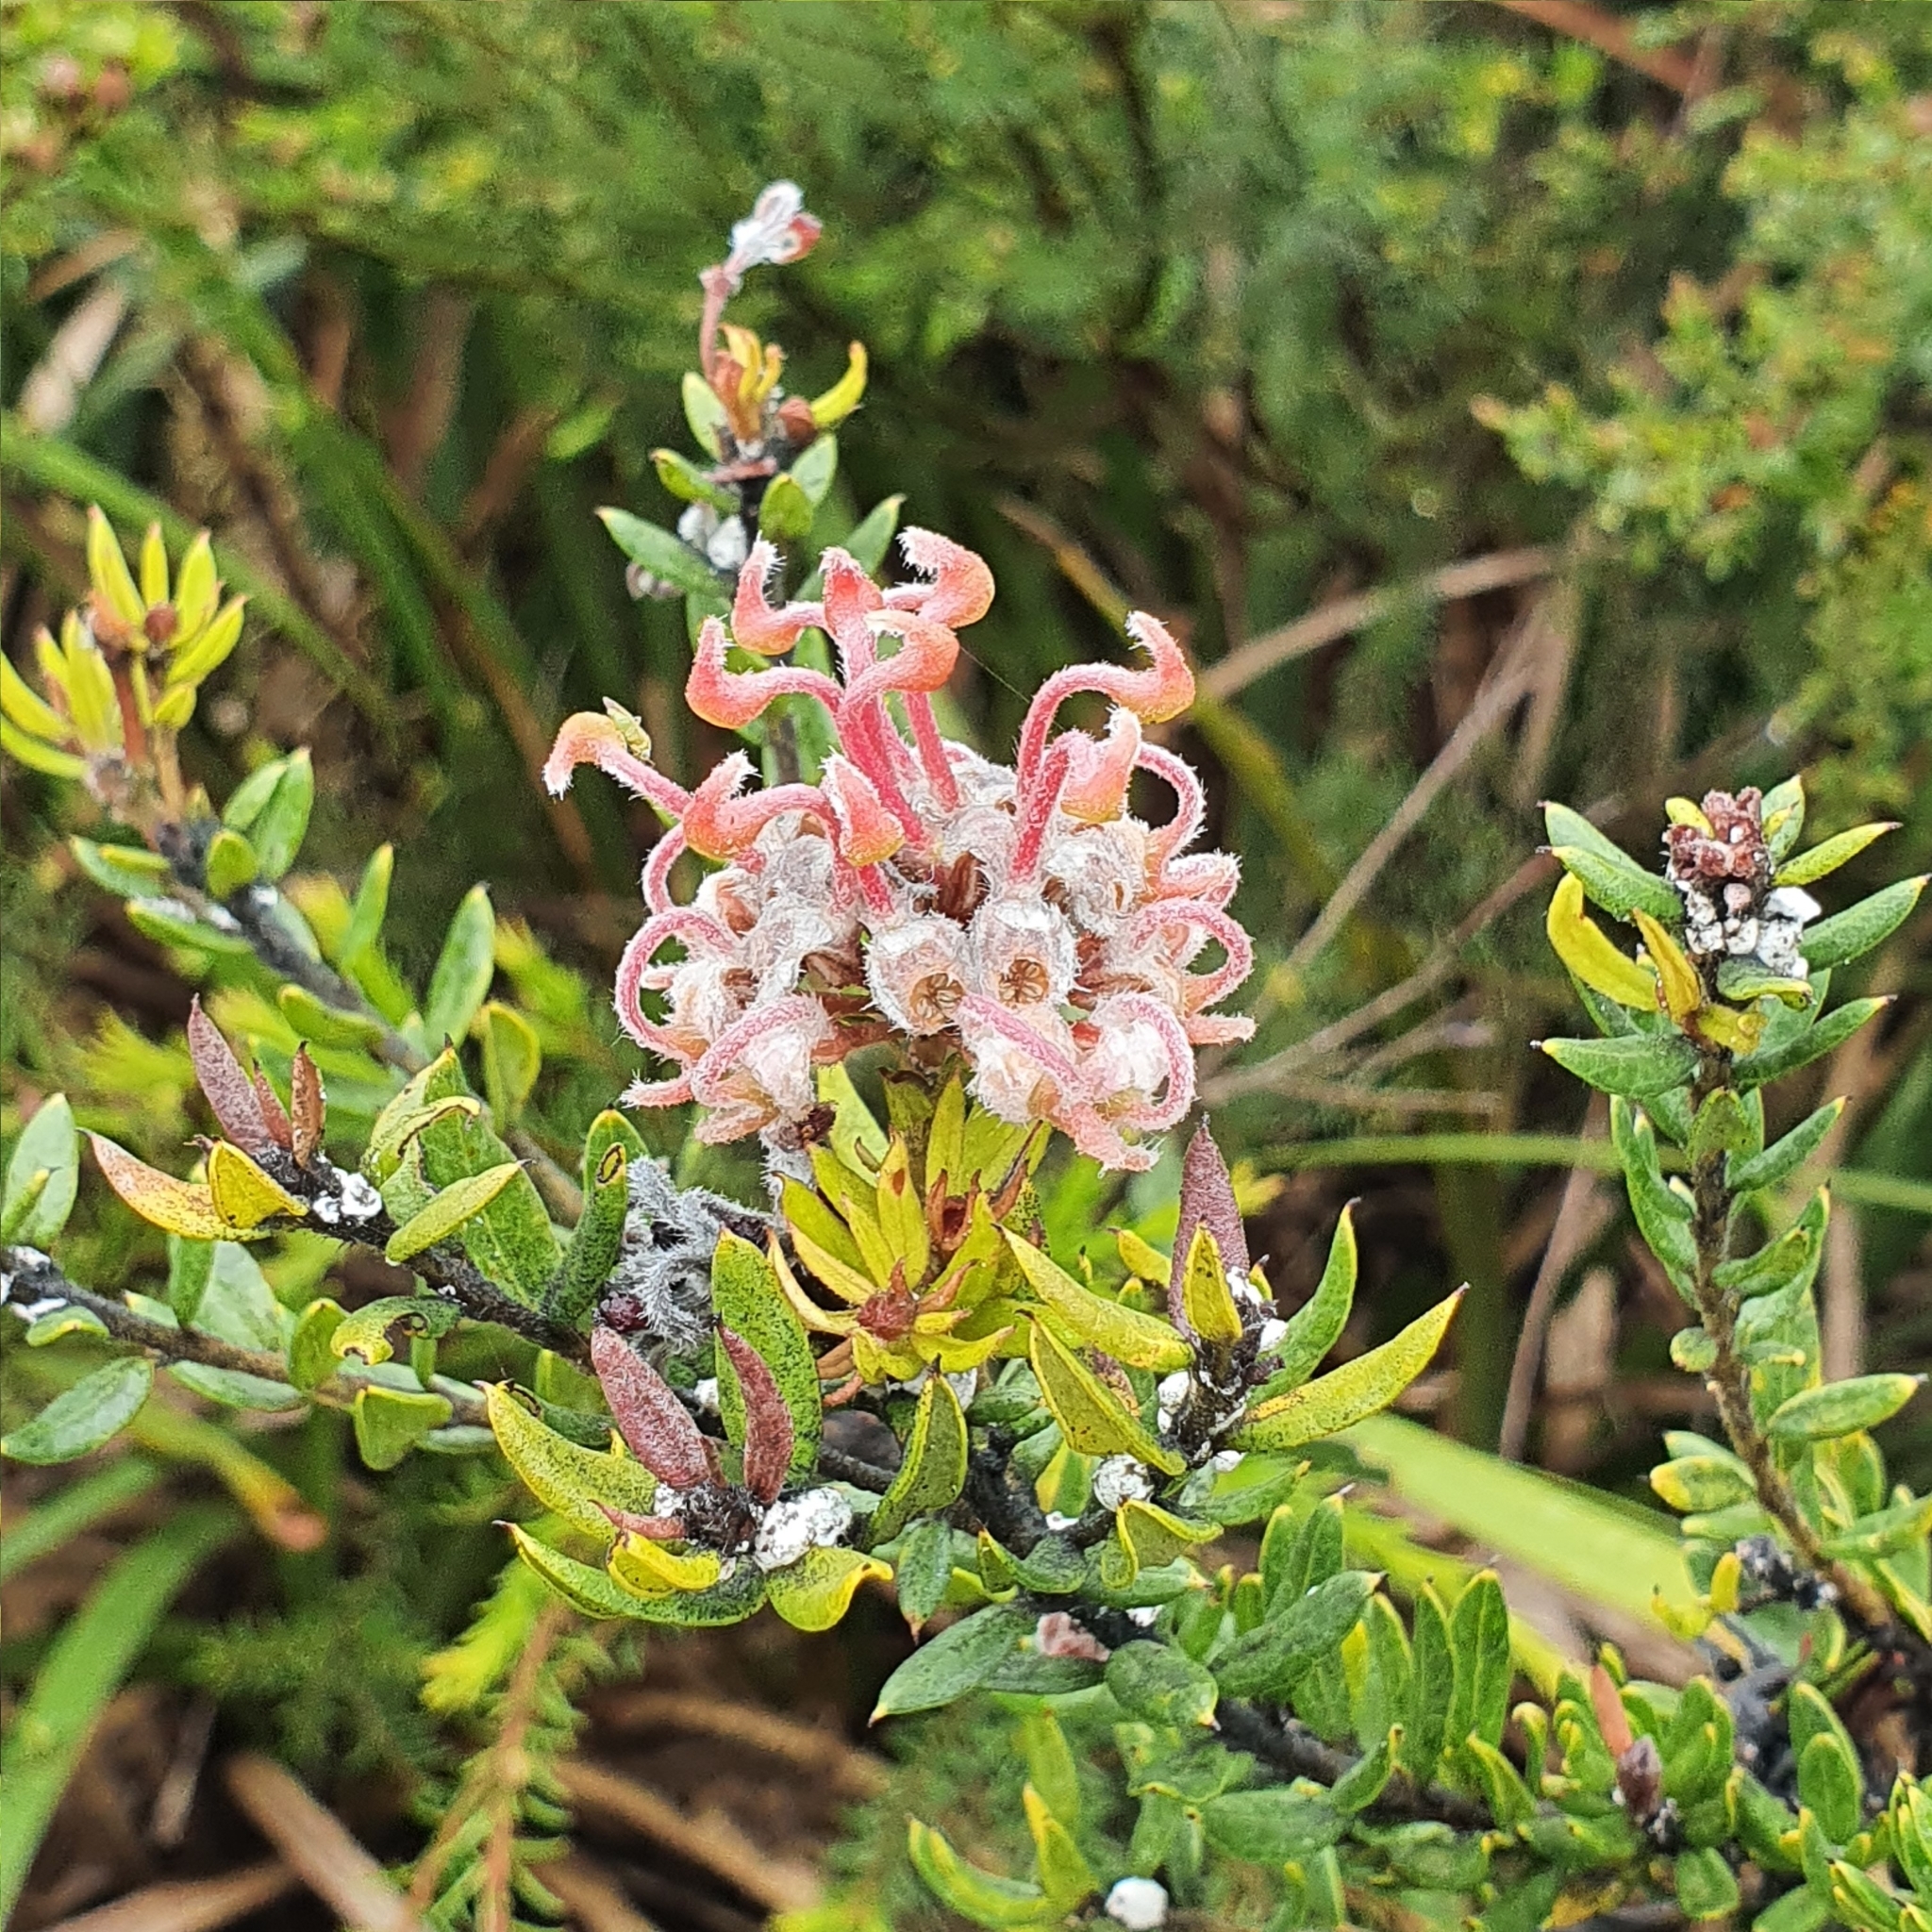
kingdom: Plantae
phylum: Tracheophyta
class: Magnoliopsida
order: Proteales
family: Proteaceae
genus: Grevillea
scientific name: Grevillea buxifolia
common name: Grey spiderflower
